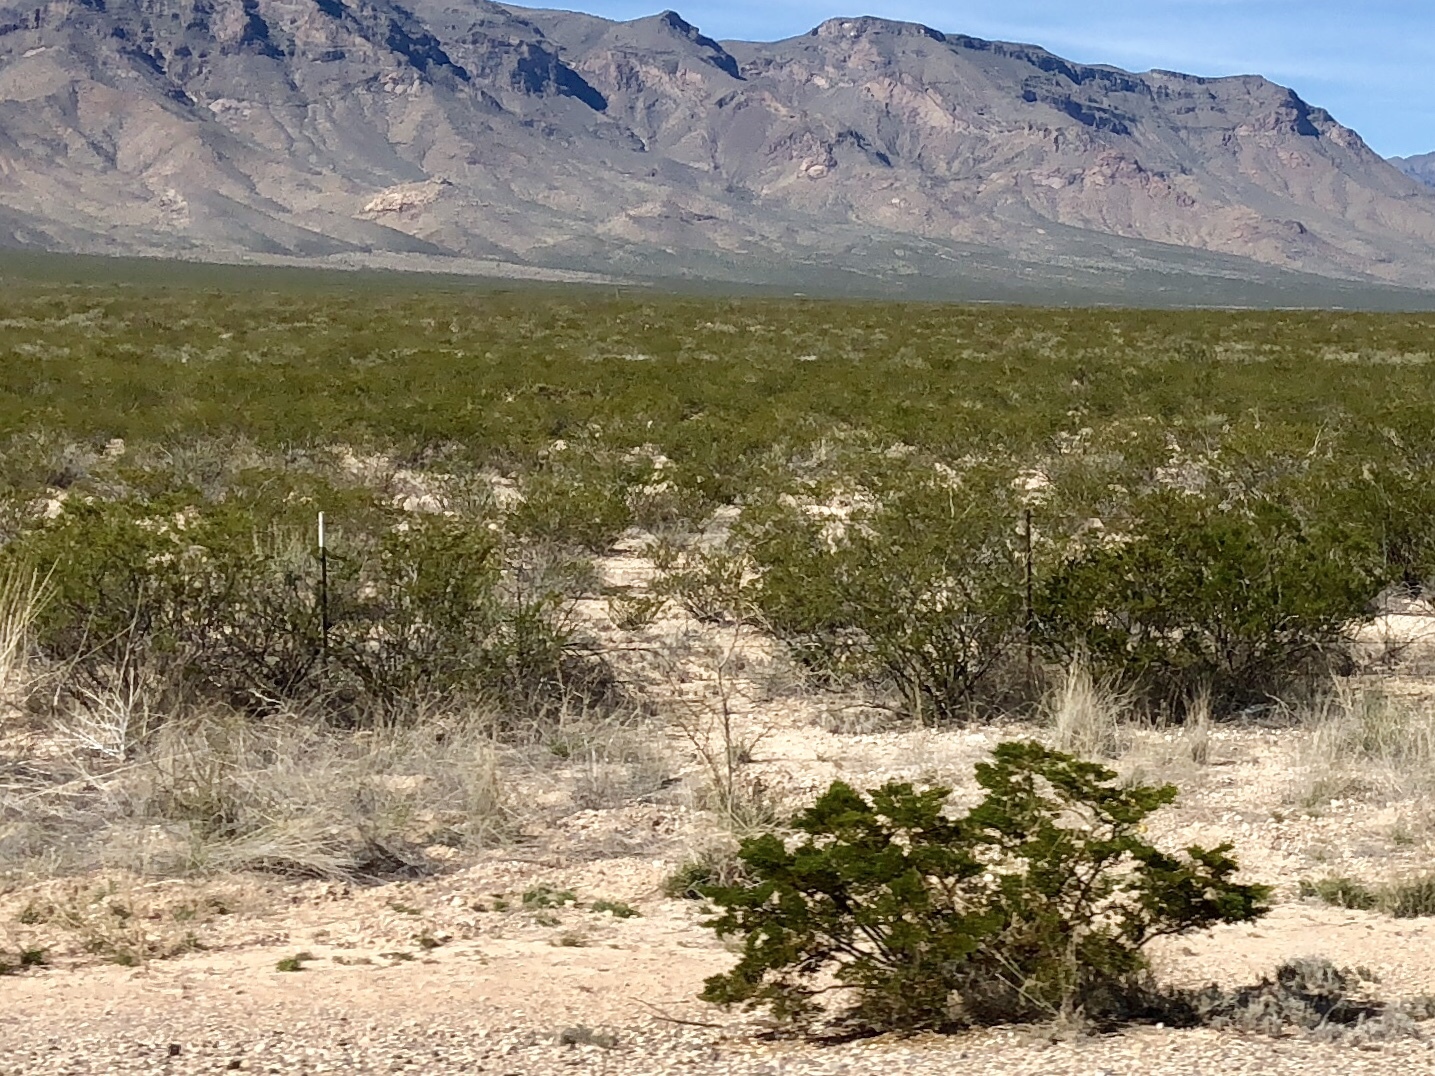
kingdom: Plantae
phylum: Tracheophyta
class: Magnoliopsida
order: Zygophyllales
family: Zygophyllaceae
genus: Larrea
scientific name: Larrea tridentata
